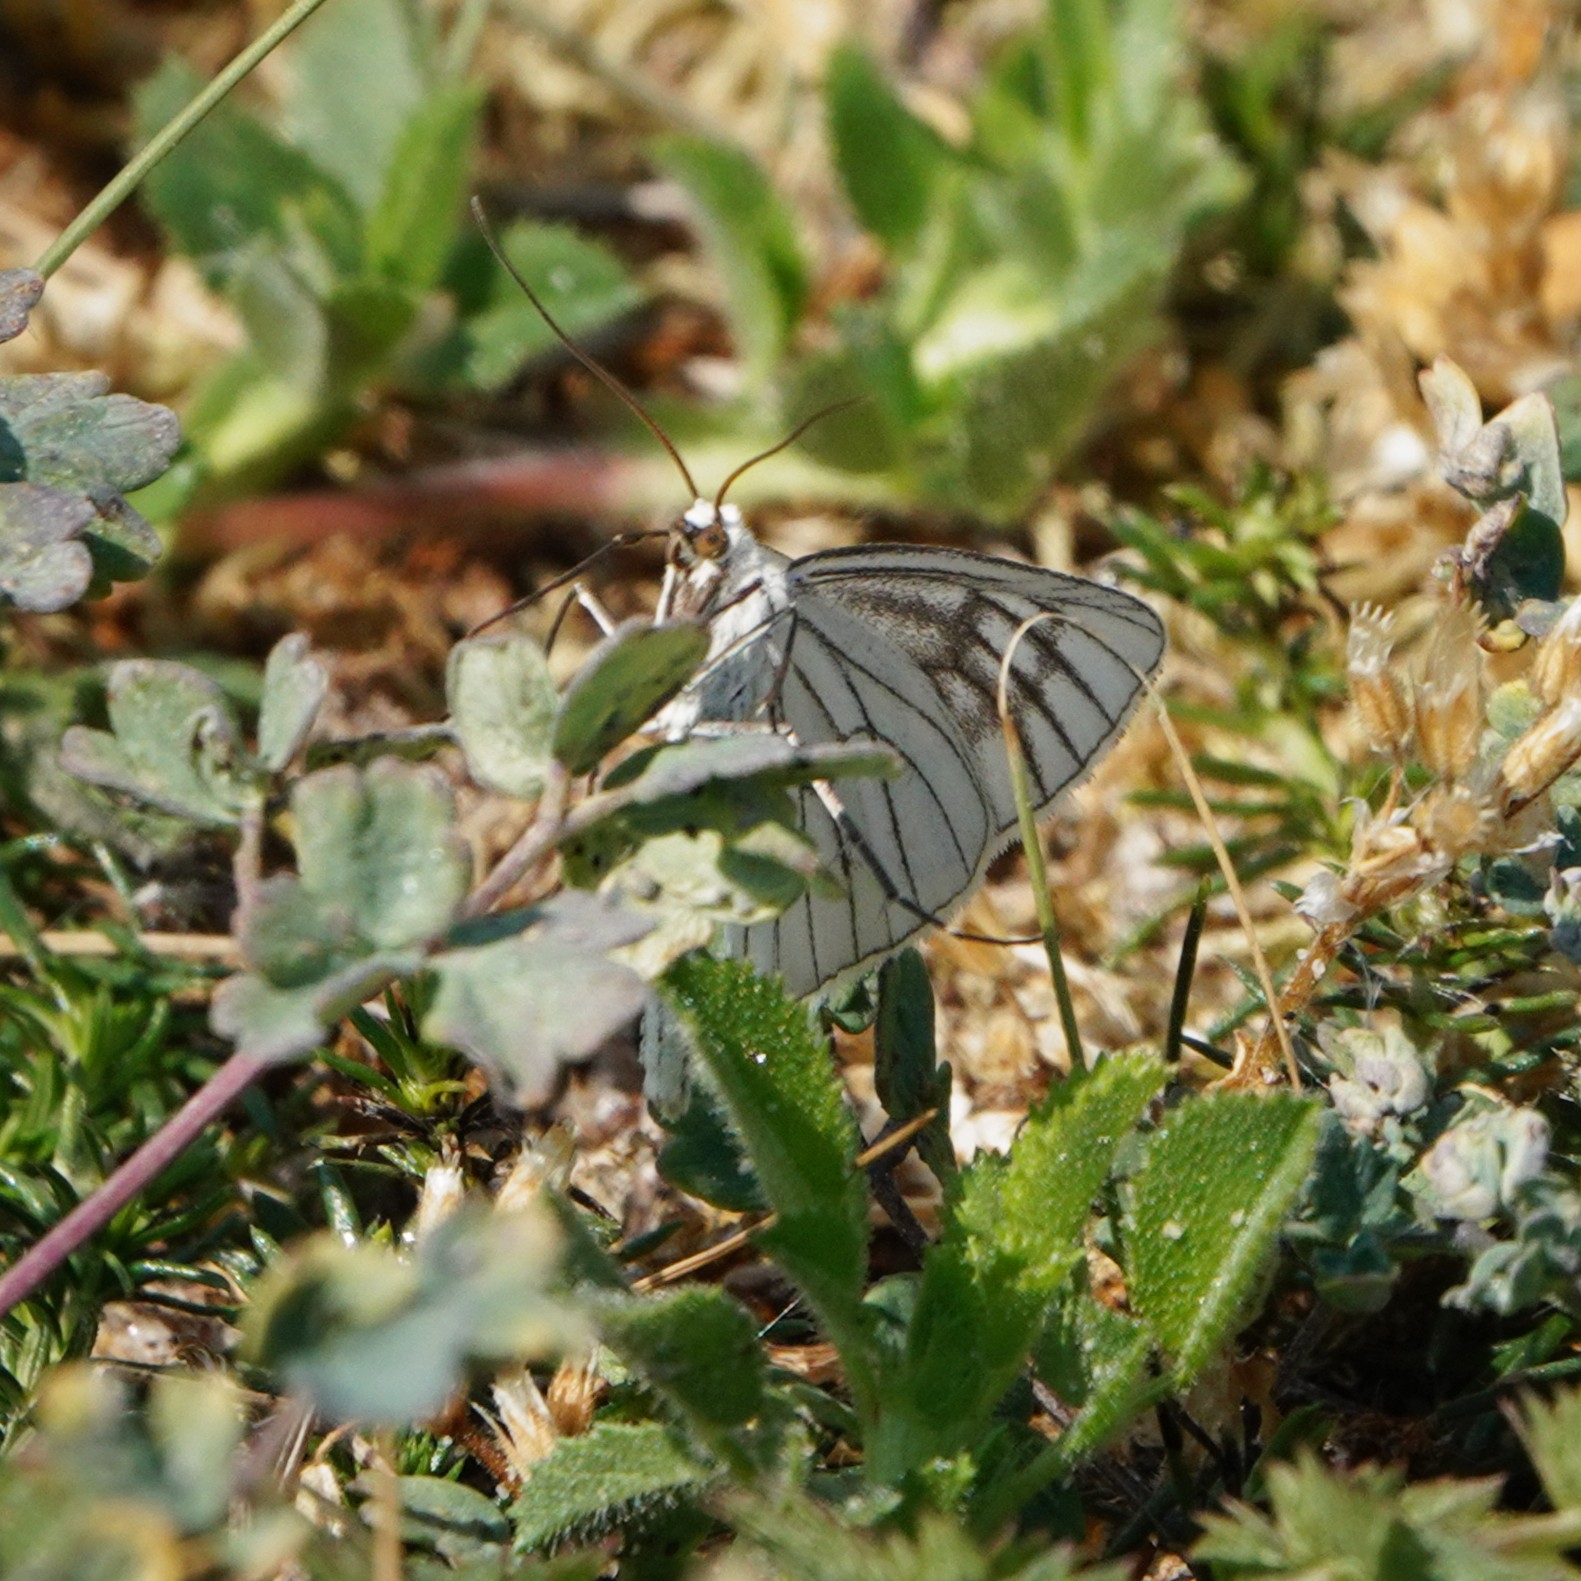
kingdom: Animalia
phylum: Arthropoda
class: Insecta
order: Lepidoptera
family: Geometridae
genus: Siona
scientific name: Siona lineata
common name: Black-veined moth
